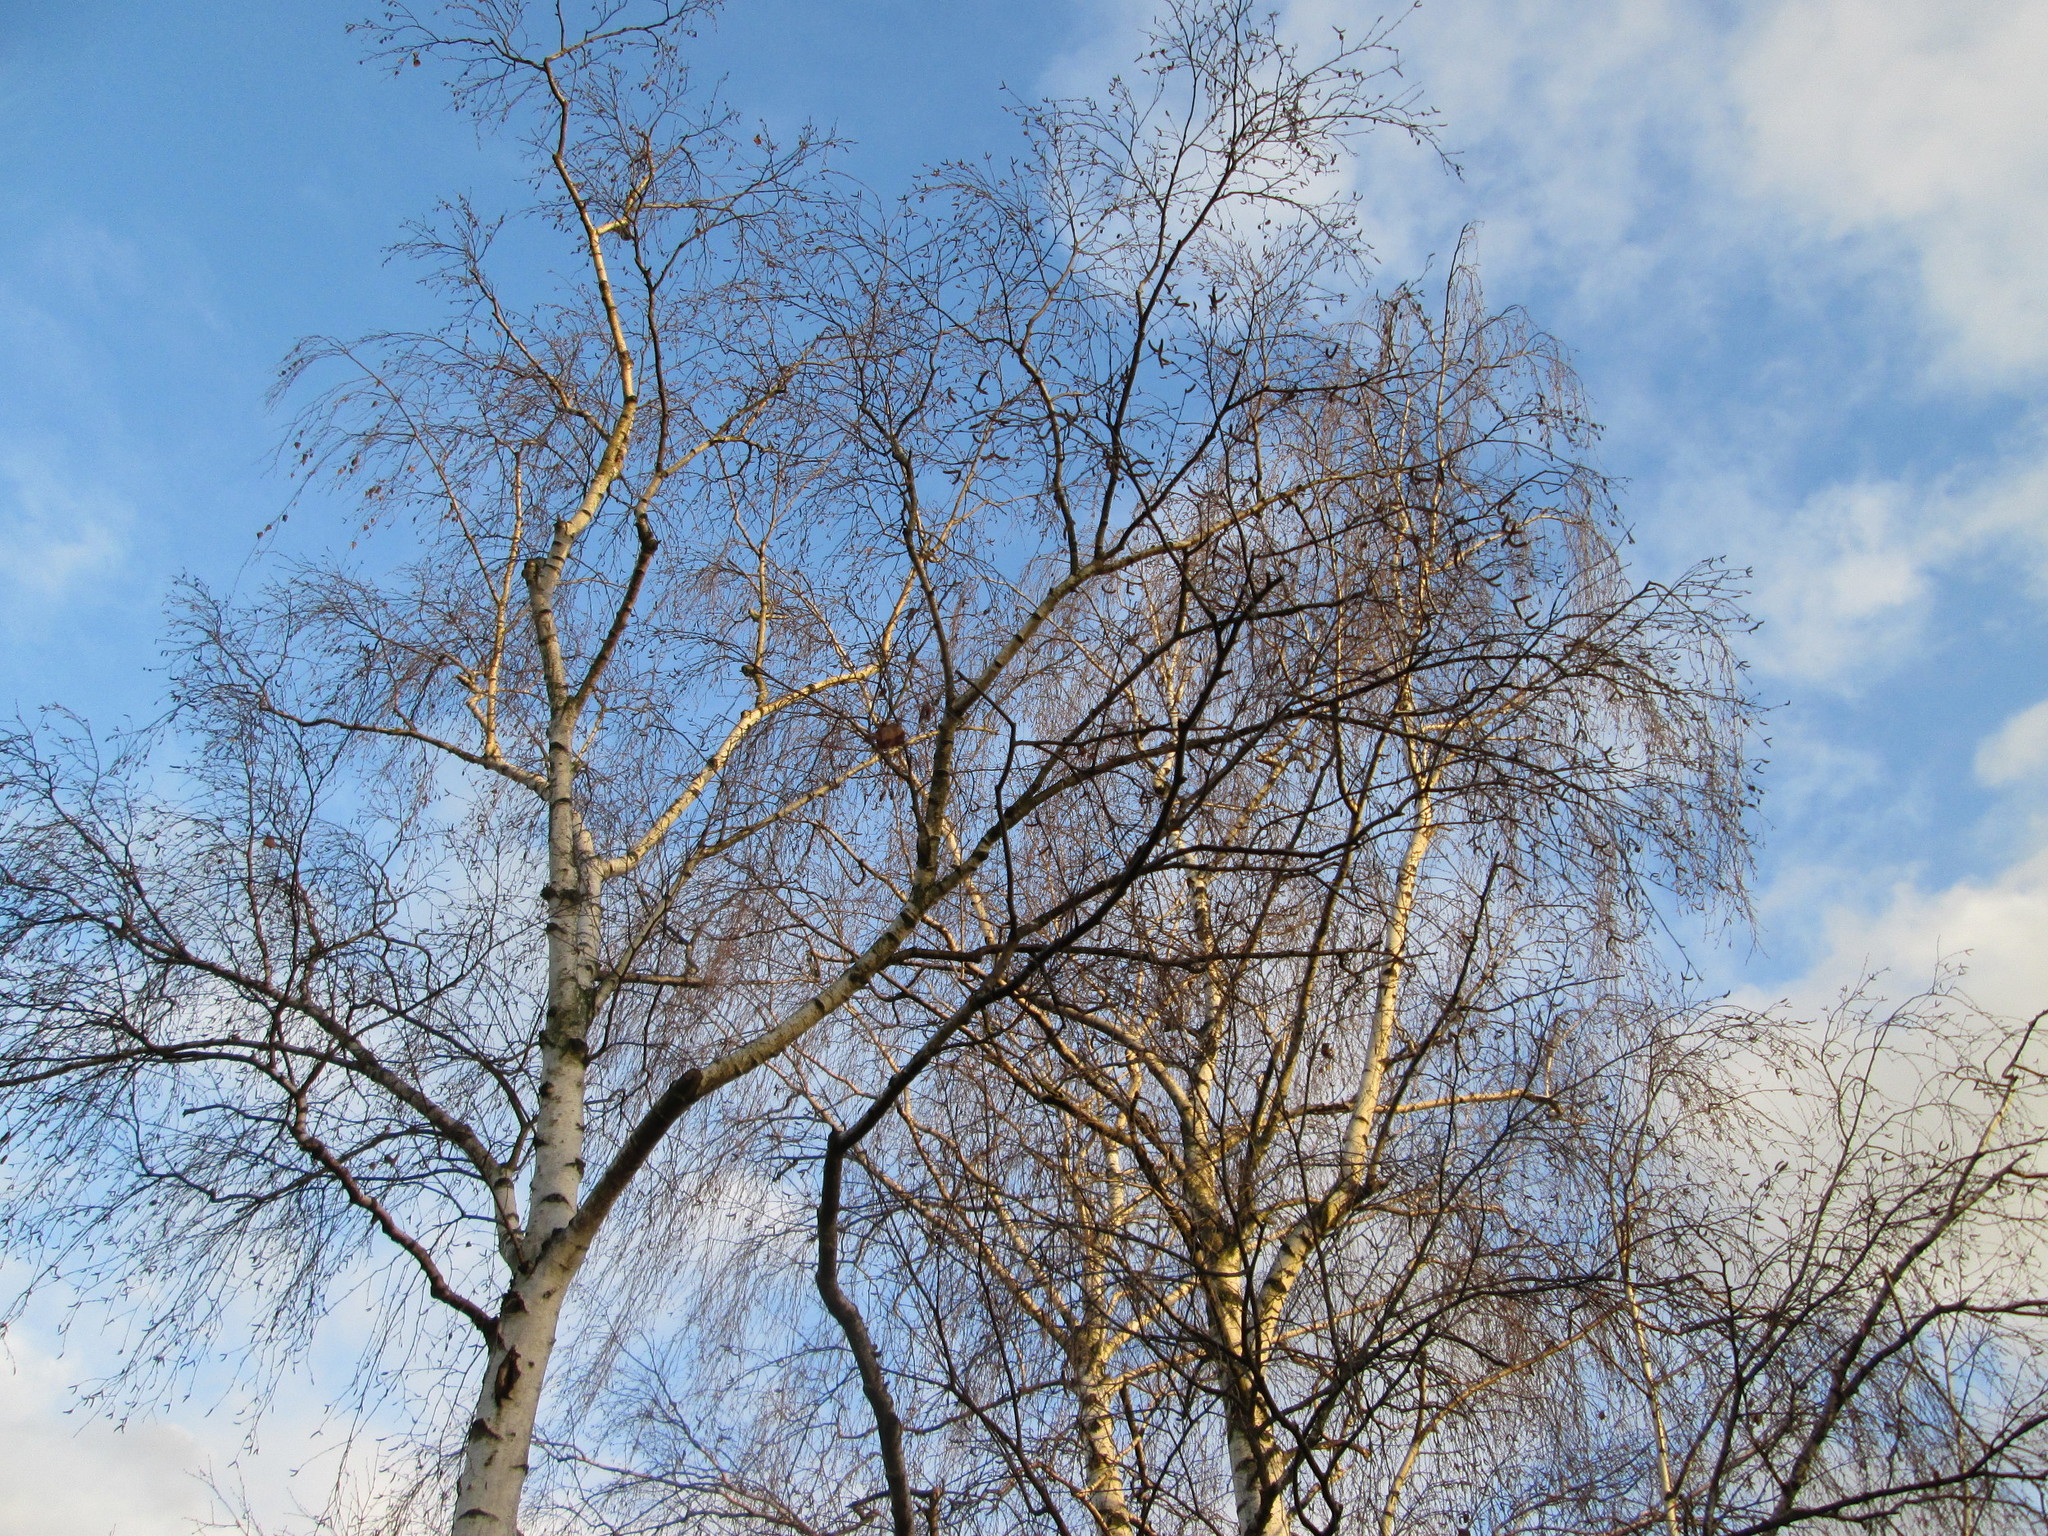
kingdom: Plantae
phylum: Tracheophyta
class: Magnoliopsida
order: Fagales
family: Betulaceae
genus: Betula
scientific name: Betula pendula
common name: Silver birch
